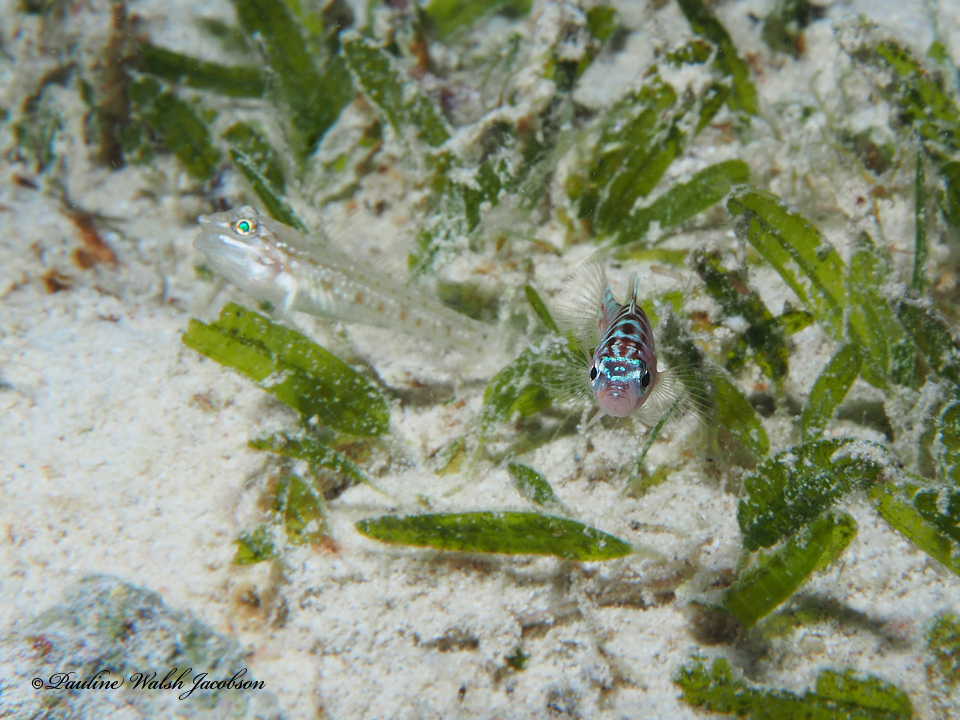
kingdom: Animalia
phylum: Chordata
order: Perciformes
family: Serranidae
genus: Serranus
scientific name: Serranus tortugarum
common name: Chalk bass
